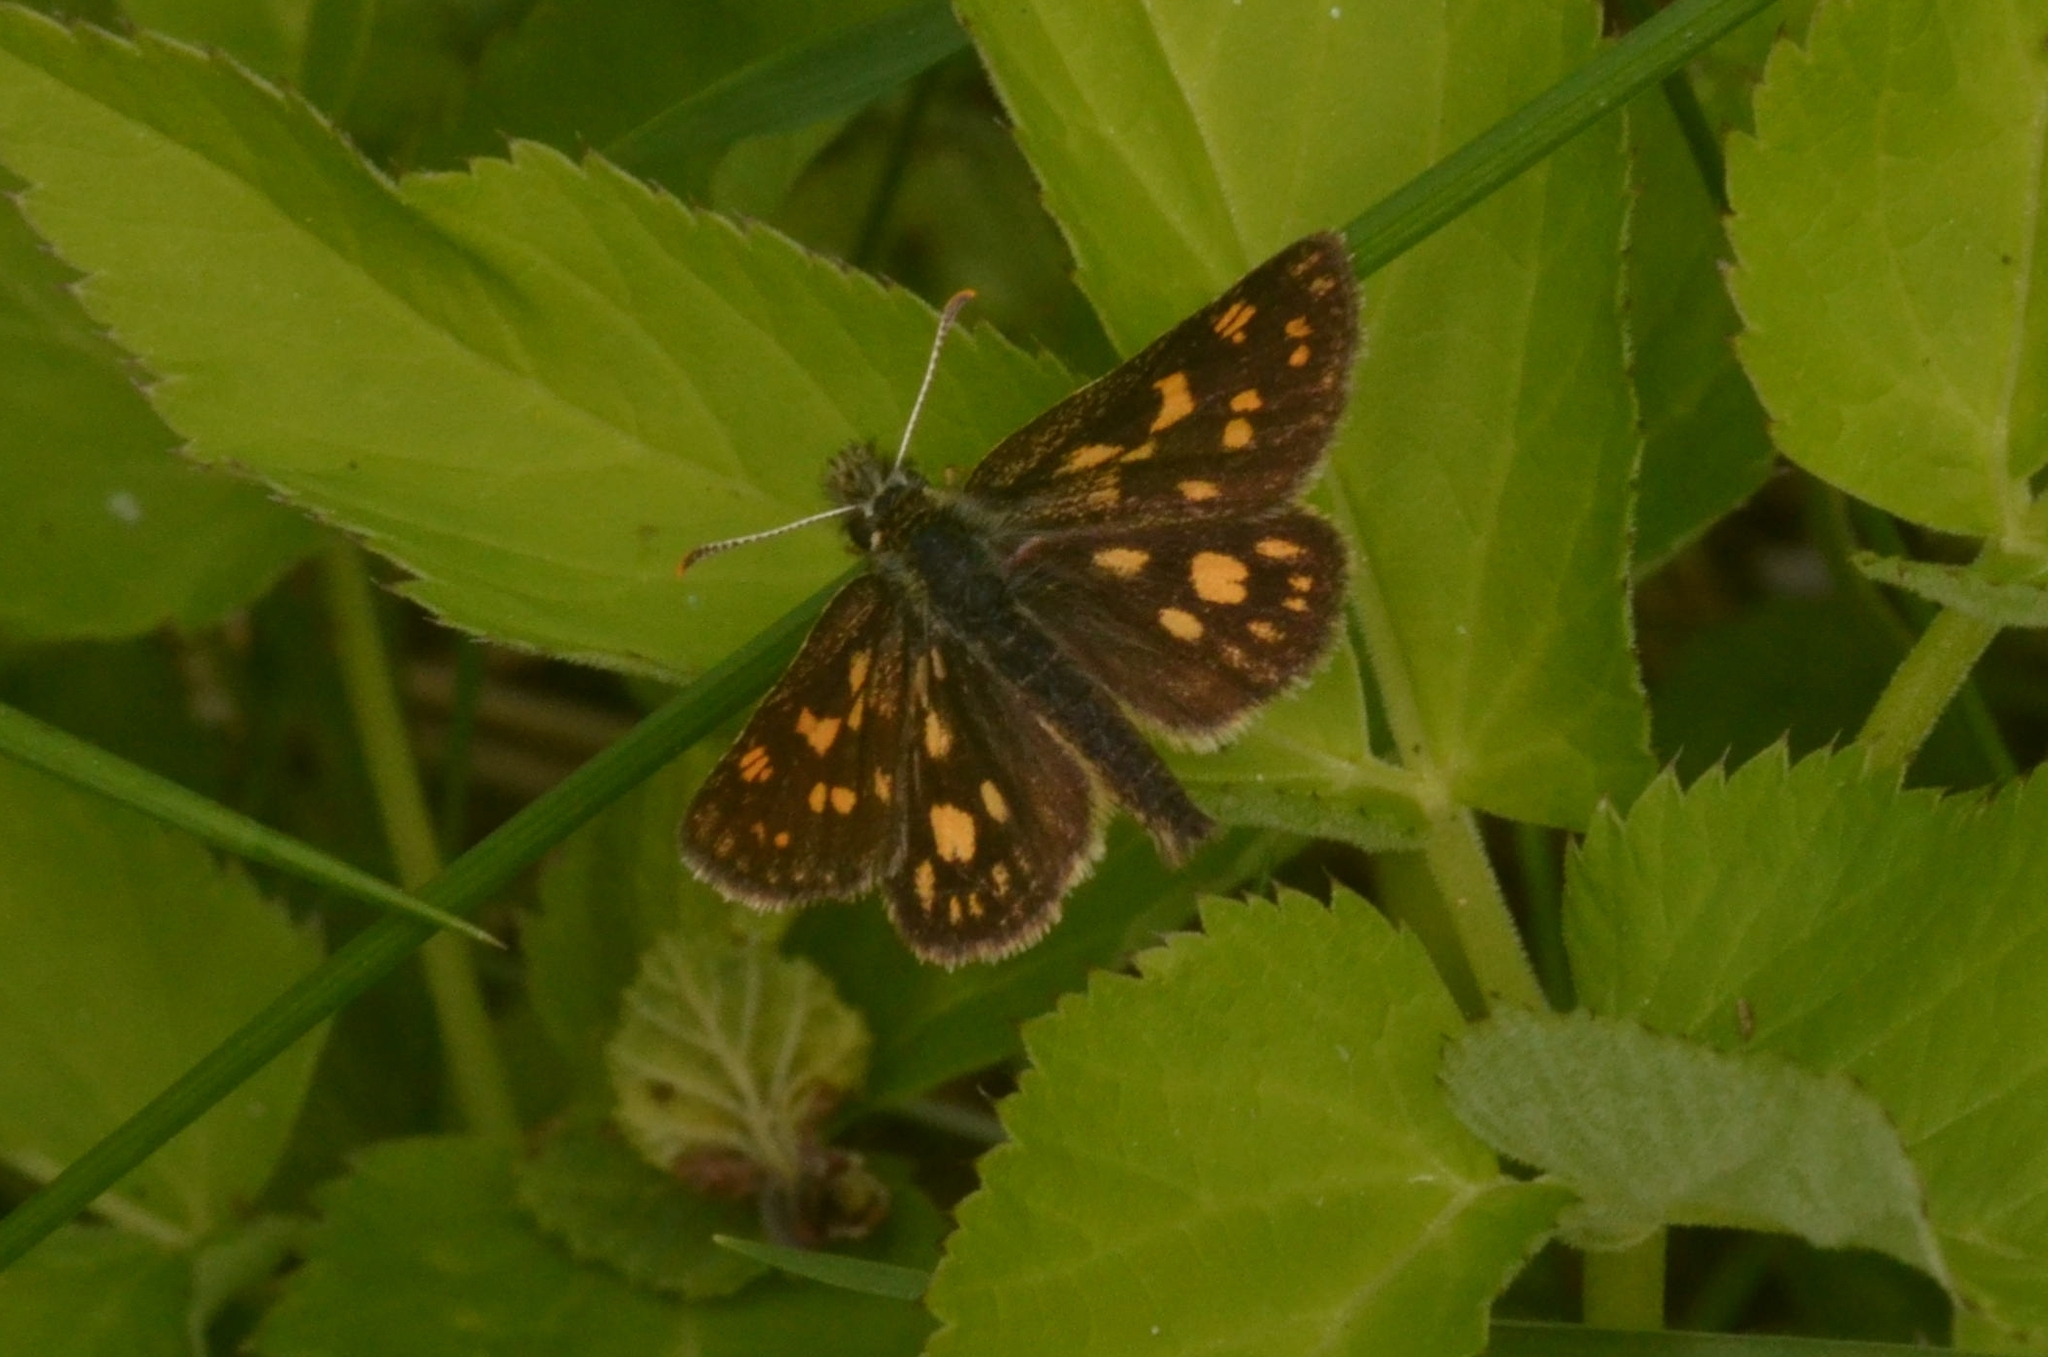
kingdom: Animalia
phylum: Arthropoda
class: Insecta
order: Lepidoptera
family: Hesperiidae
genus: Carterocephalus
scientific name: Carterocephalus palaemon
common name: Chequered skipper
